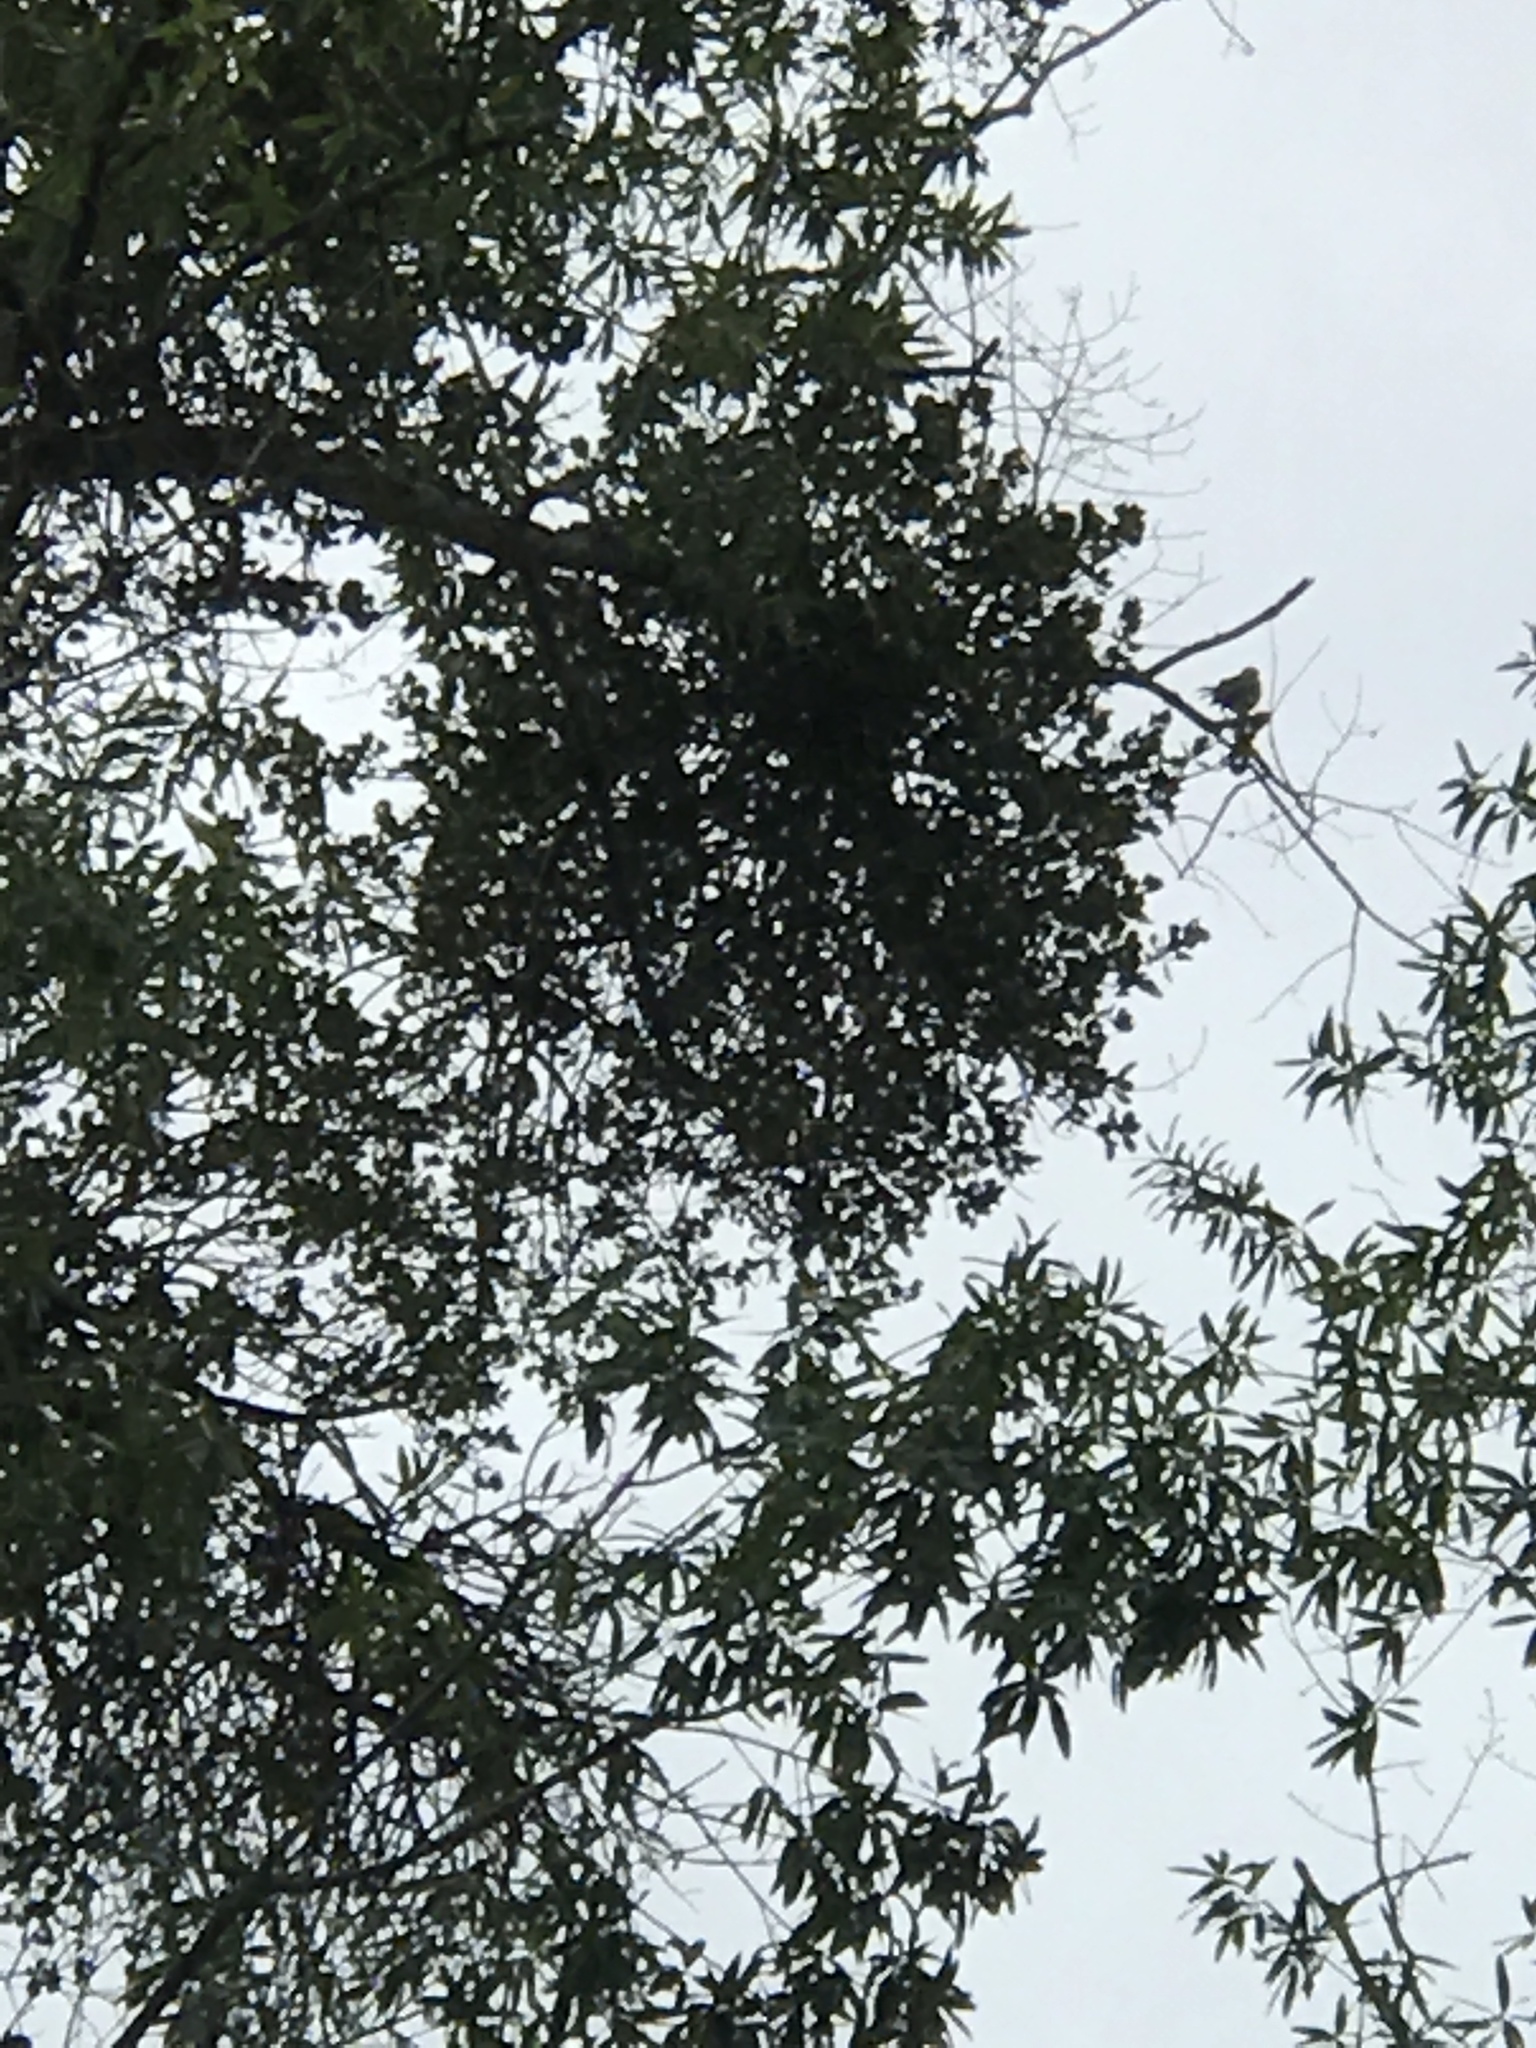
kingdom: Animalia
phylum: Chordata
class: Aves
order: Passeriformes
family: Mimidae
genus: Mimus
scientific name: Mimus polyglottos
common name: Northern mockingbird
